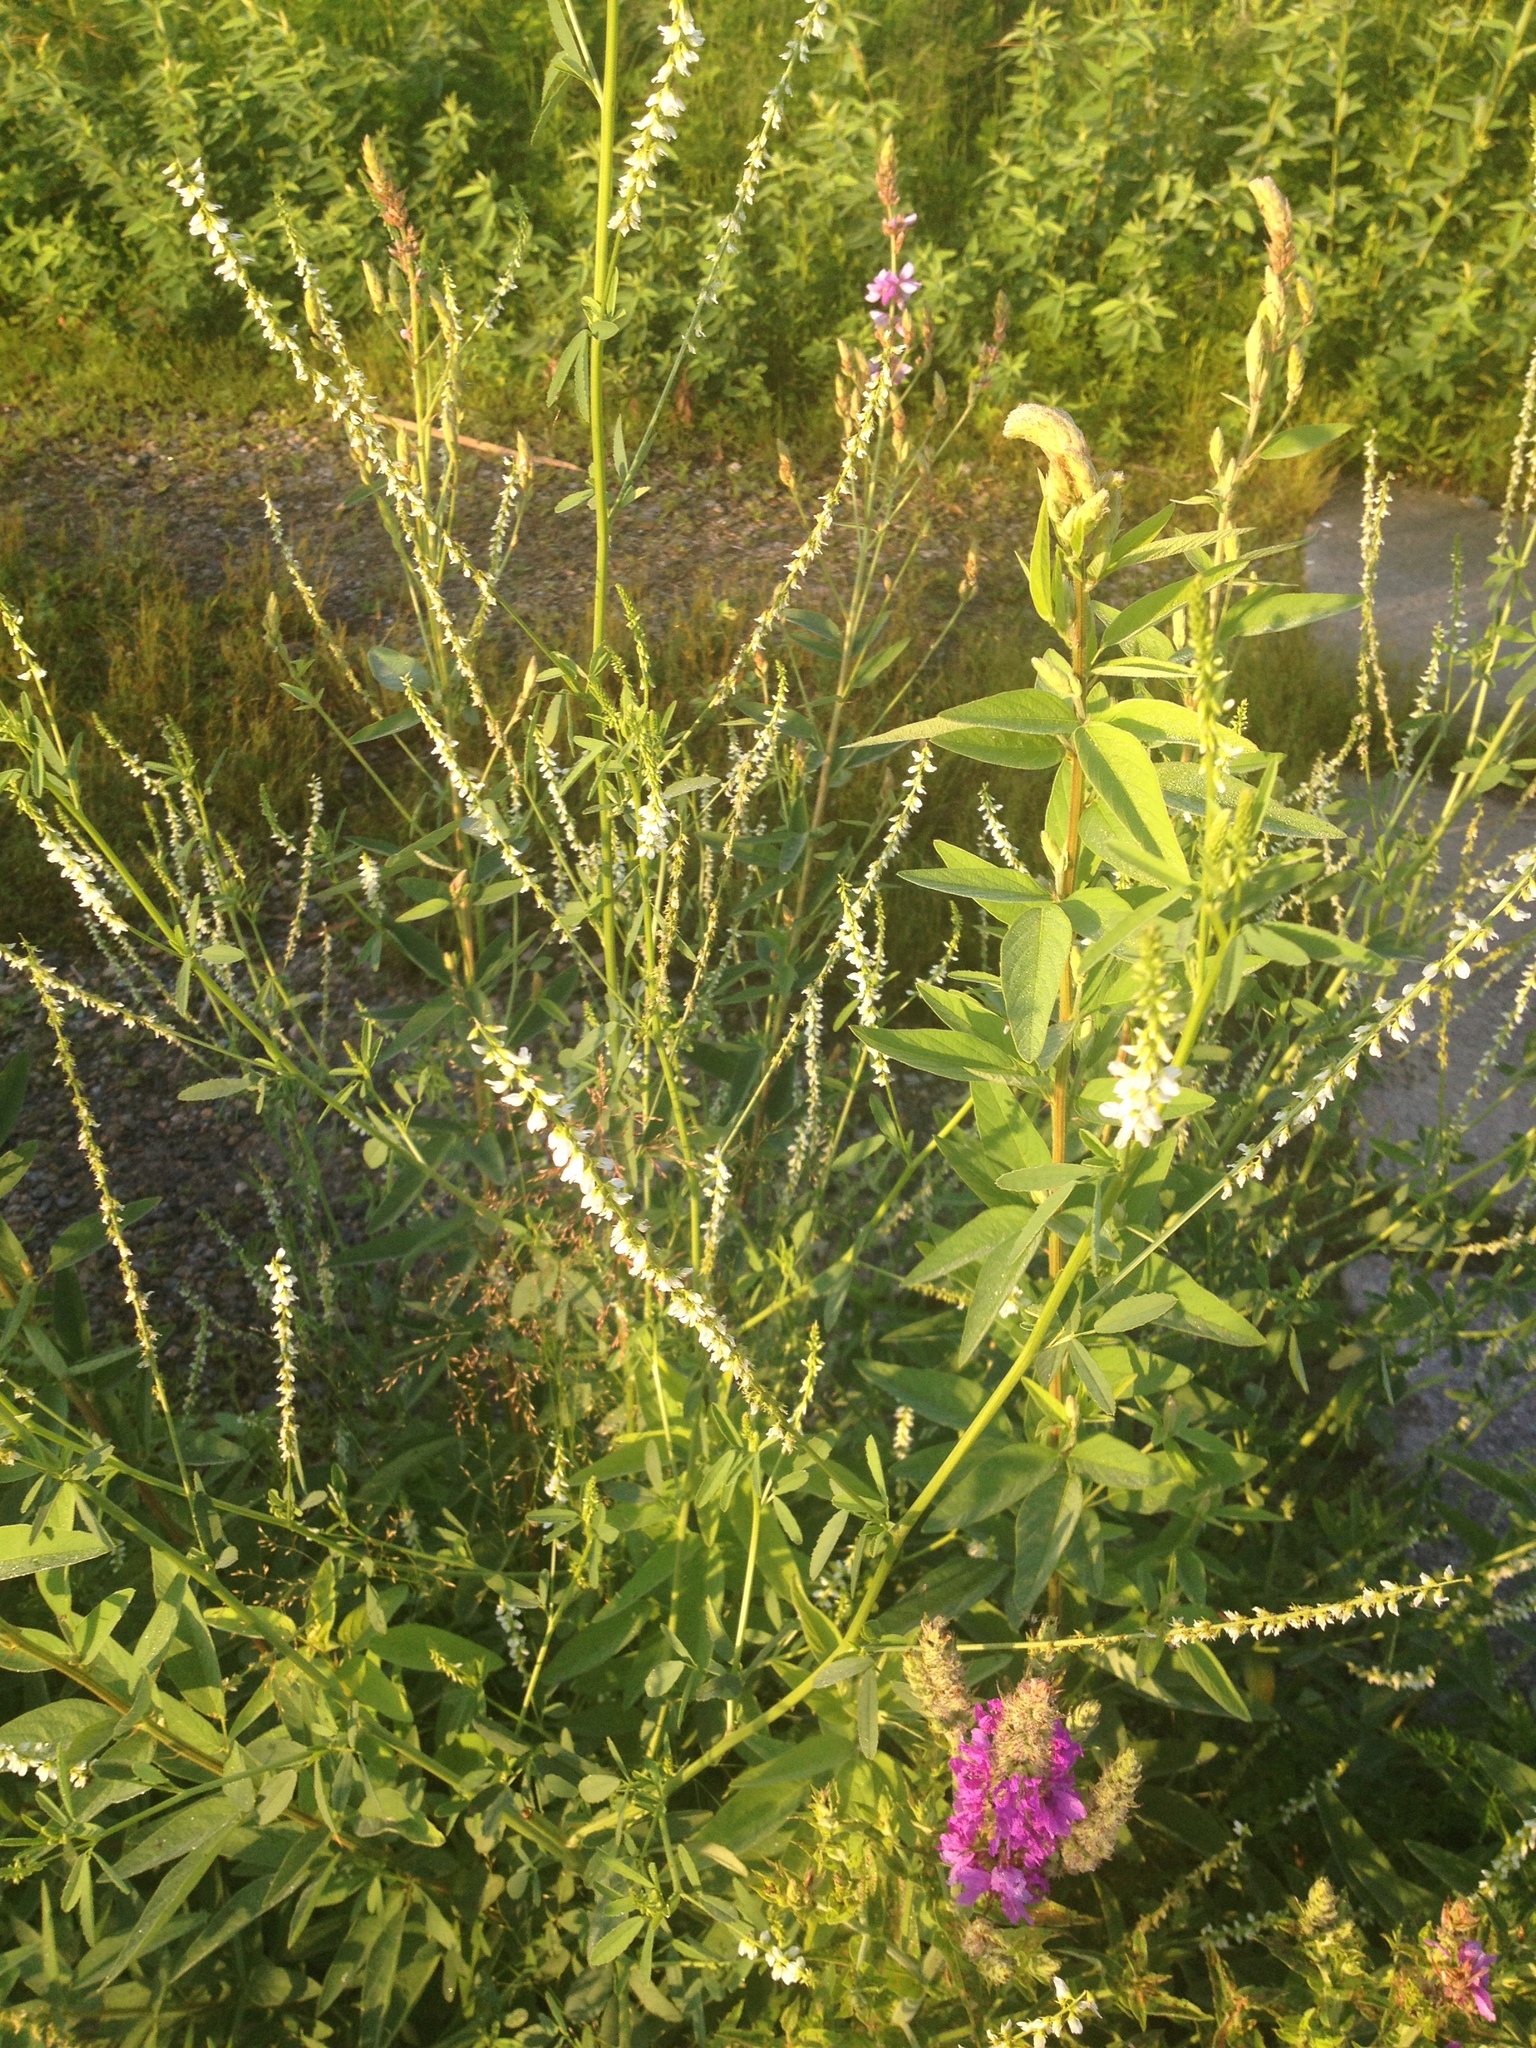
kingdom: Plantae
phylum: Tracheophyta
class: Magnoliopsida
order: Fabales
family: Fabaceae
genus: Melilotus
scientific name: Melilotus albus
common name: White melilot
